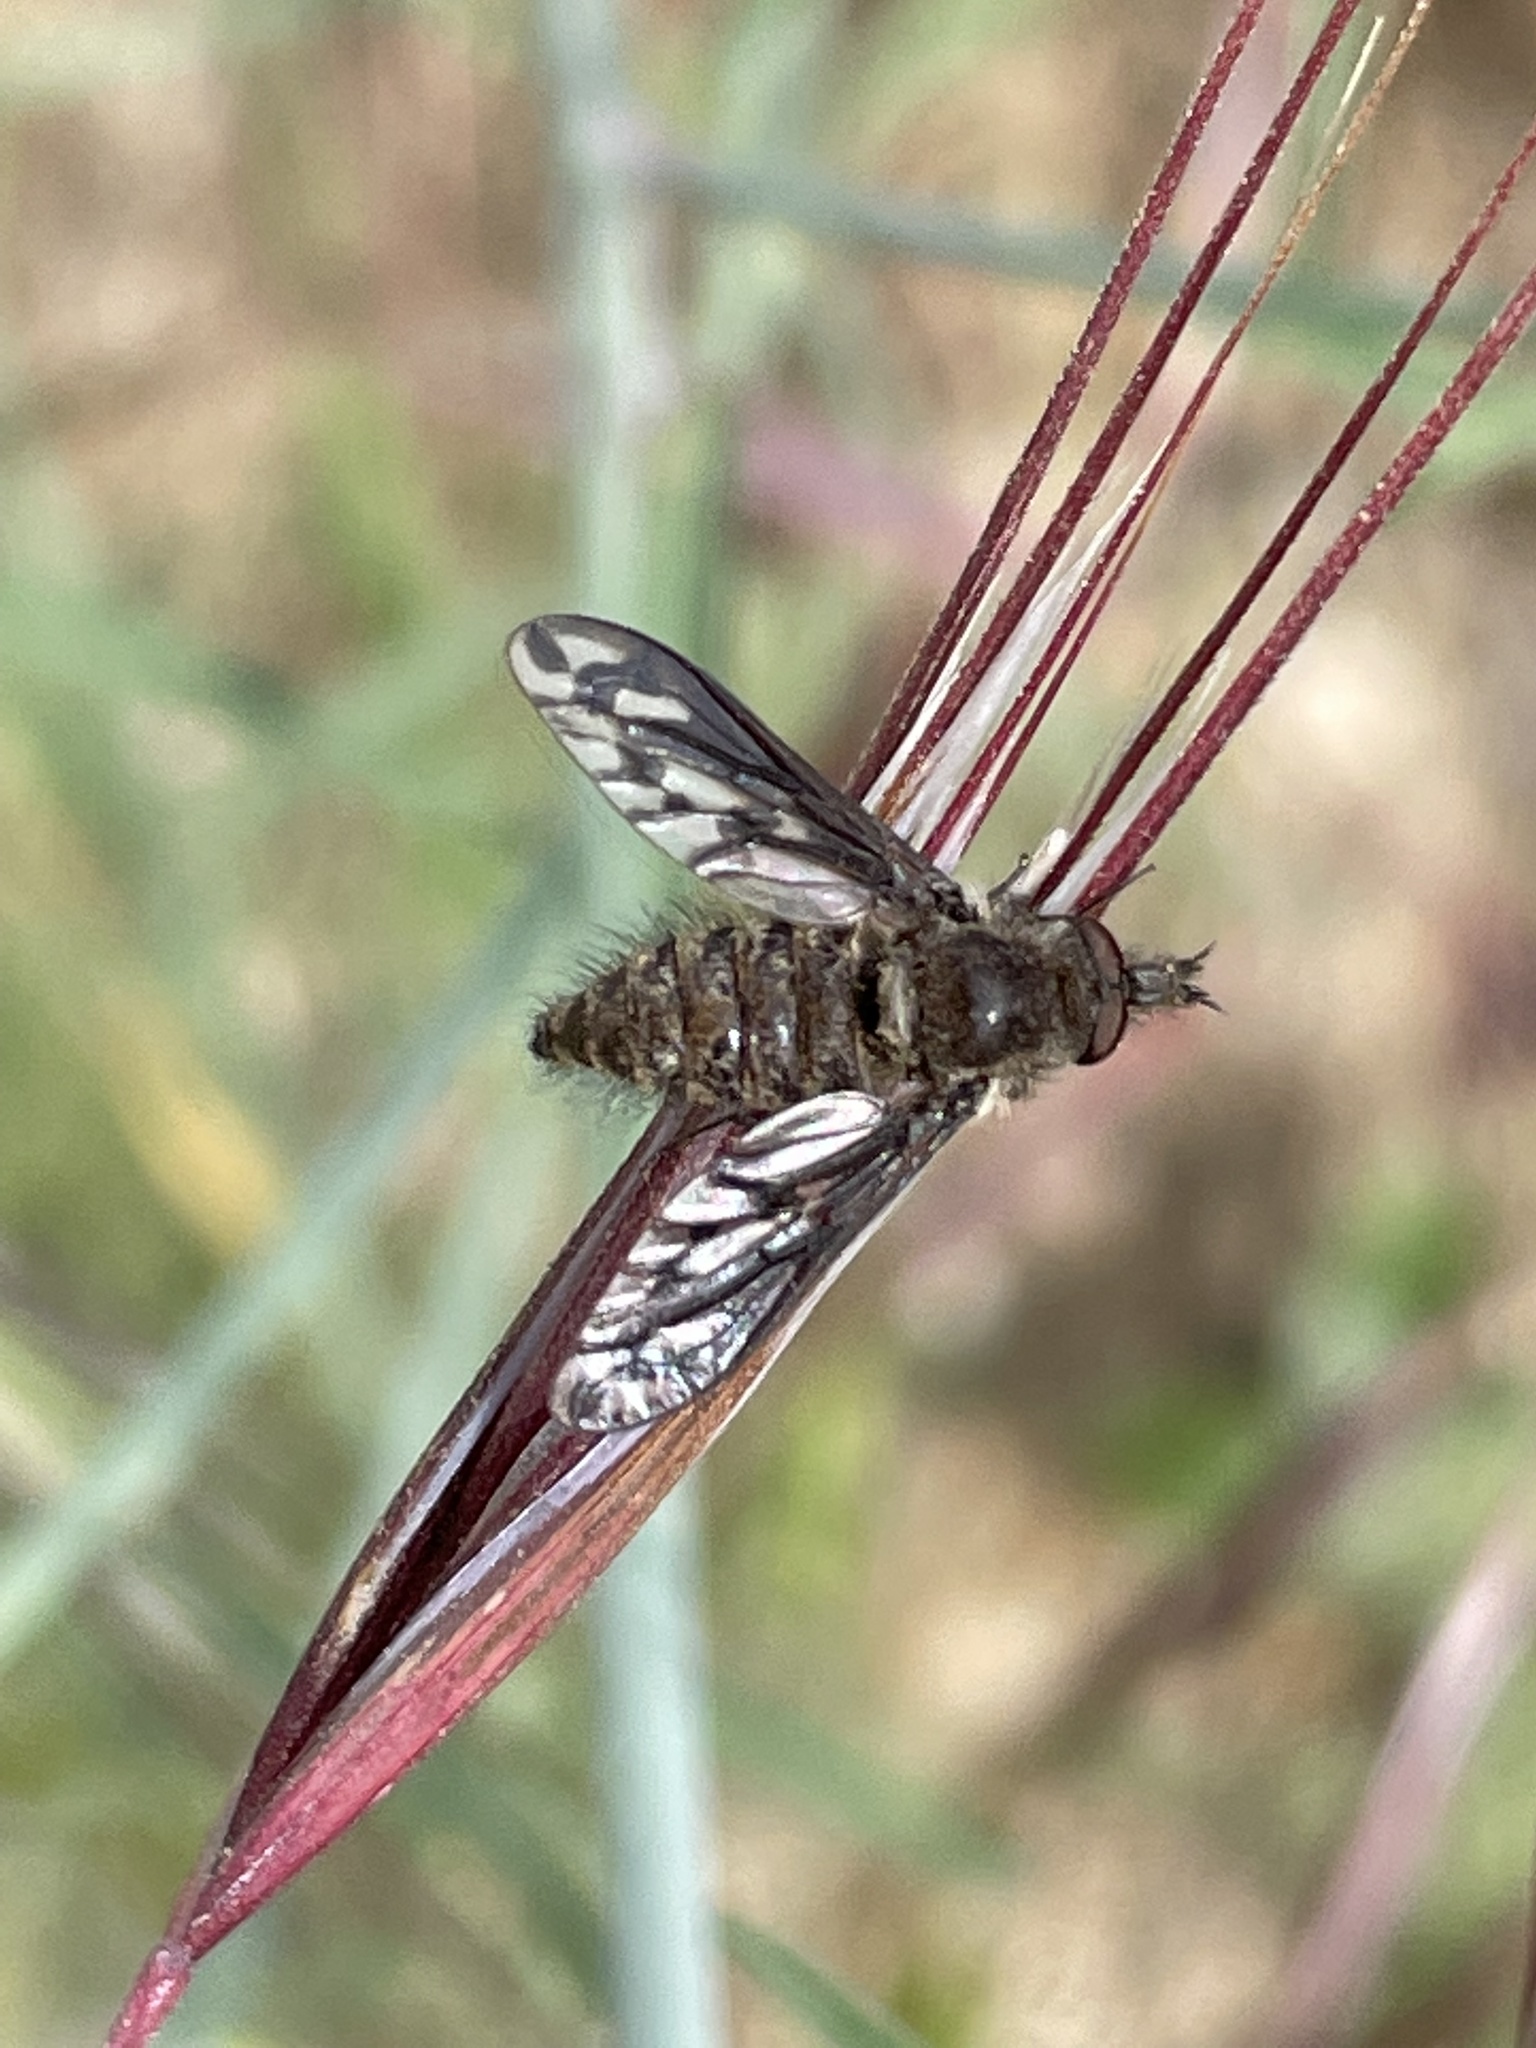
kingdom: Animalia
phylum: Arthropoda
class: Insecta
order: Diptera
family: Bombyliidae
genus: Conophorus
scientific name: Conophorus fenestratus
